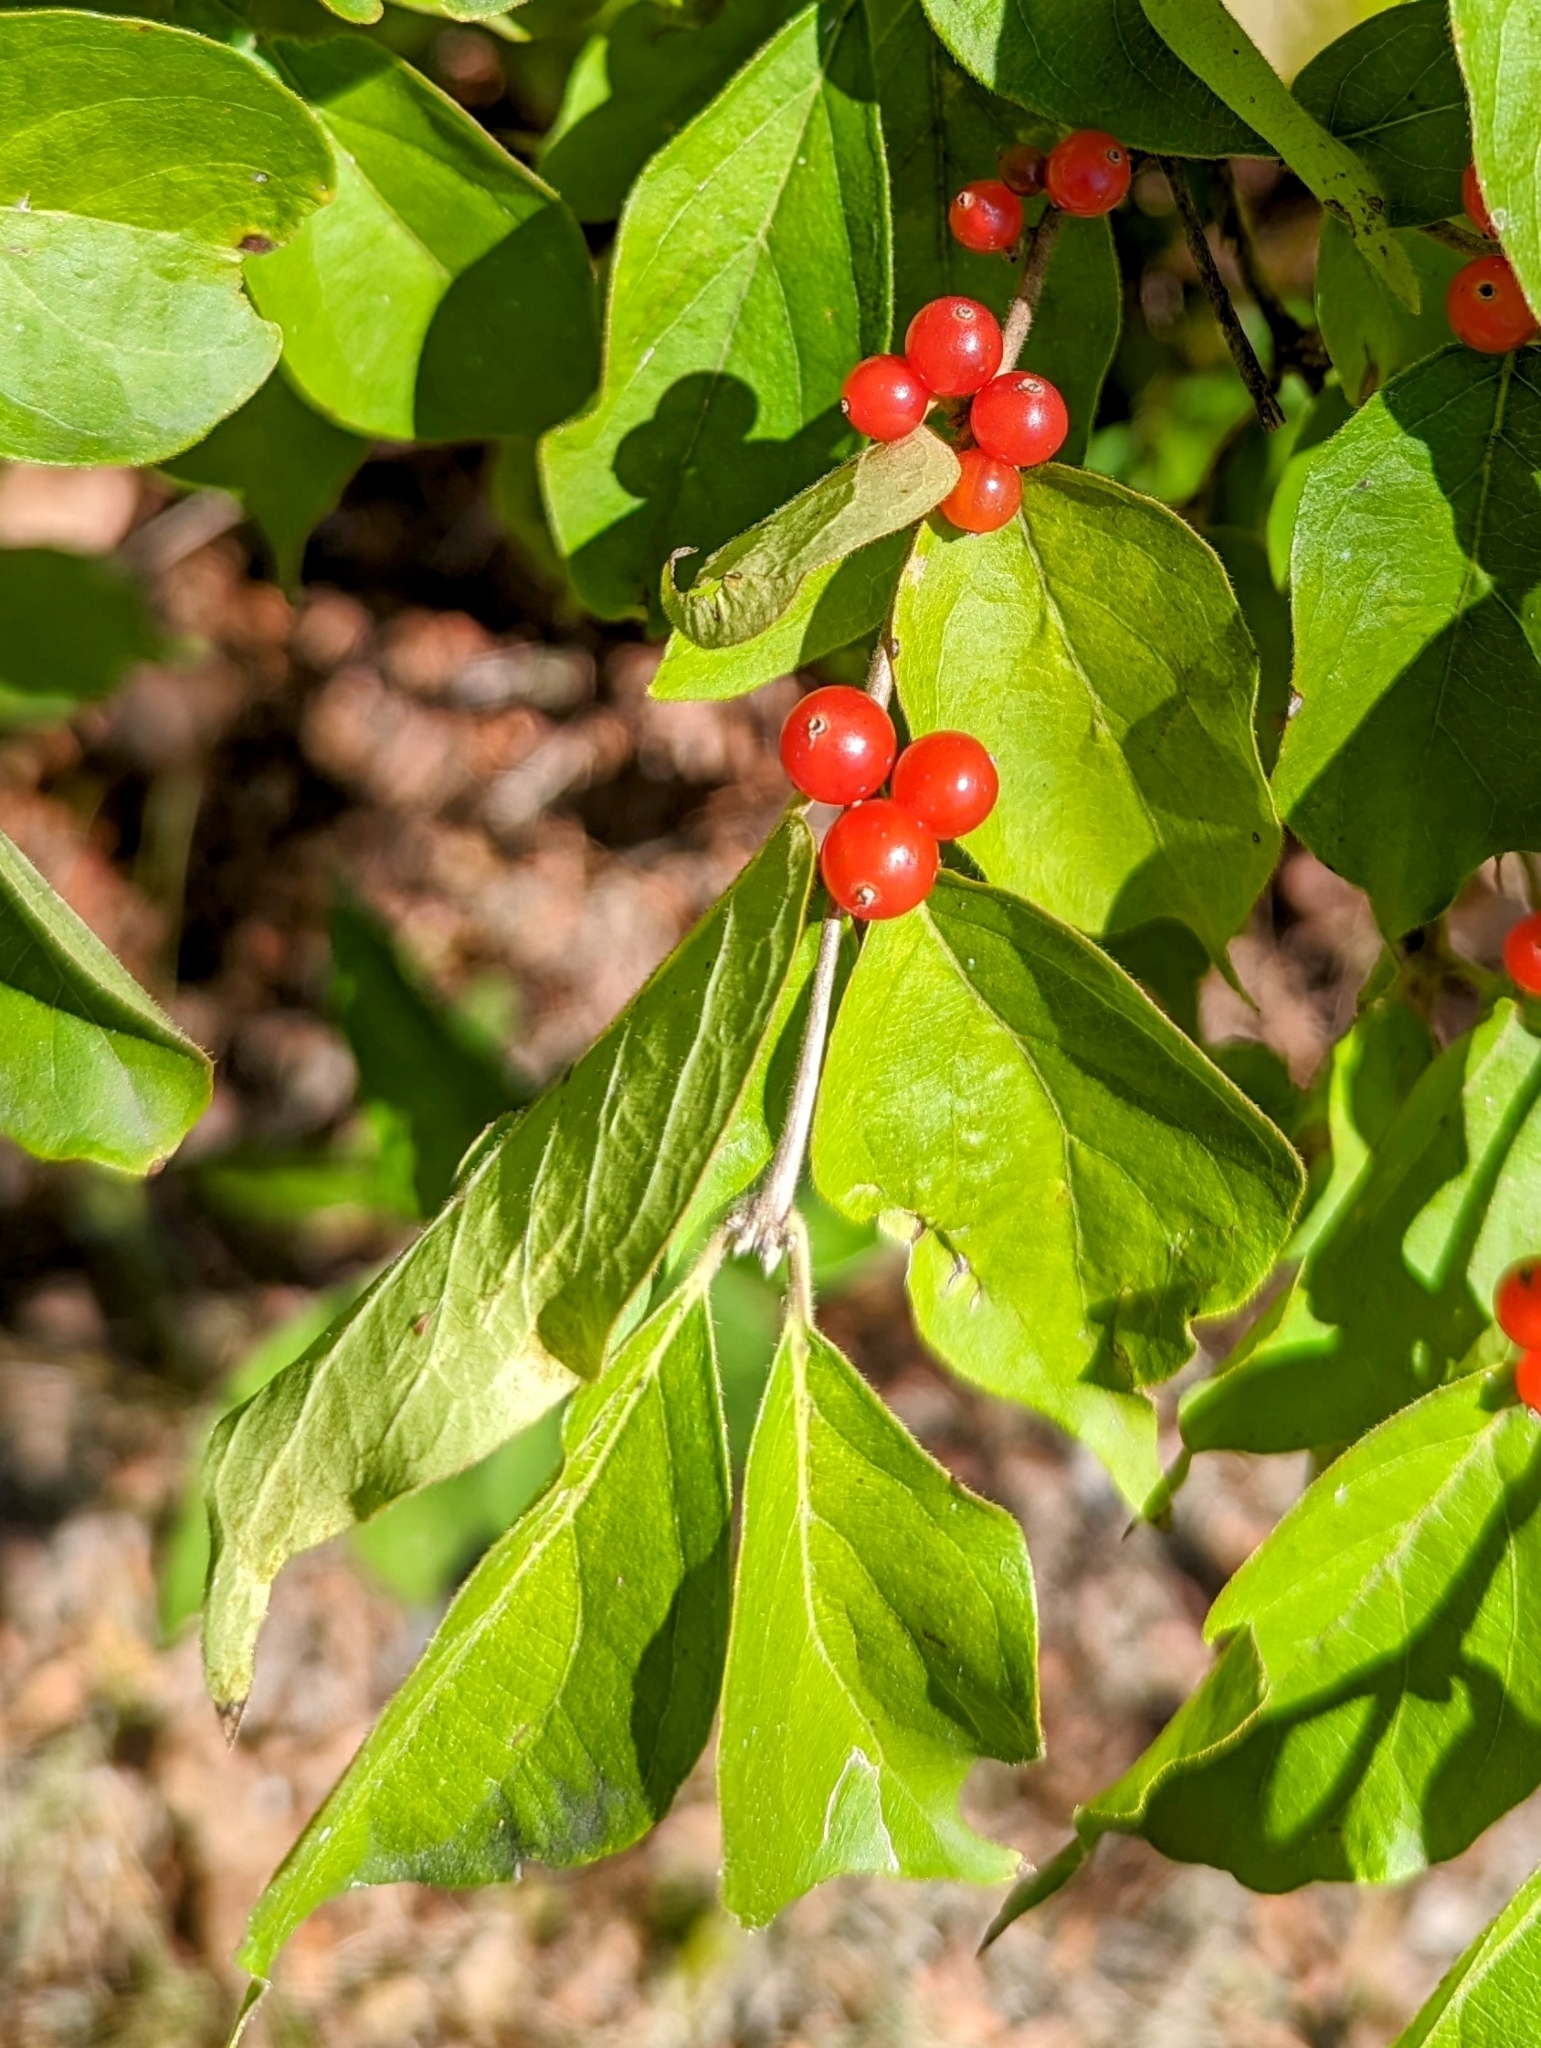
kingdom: Plantae
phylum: Tracheophyta
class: Magnoliopsida
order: Dipsacales
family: Caprifoliaceae
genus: Lonicera
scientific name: Lonicera maackii
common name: Amur honeysuckle
